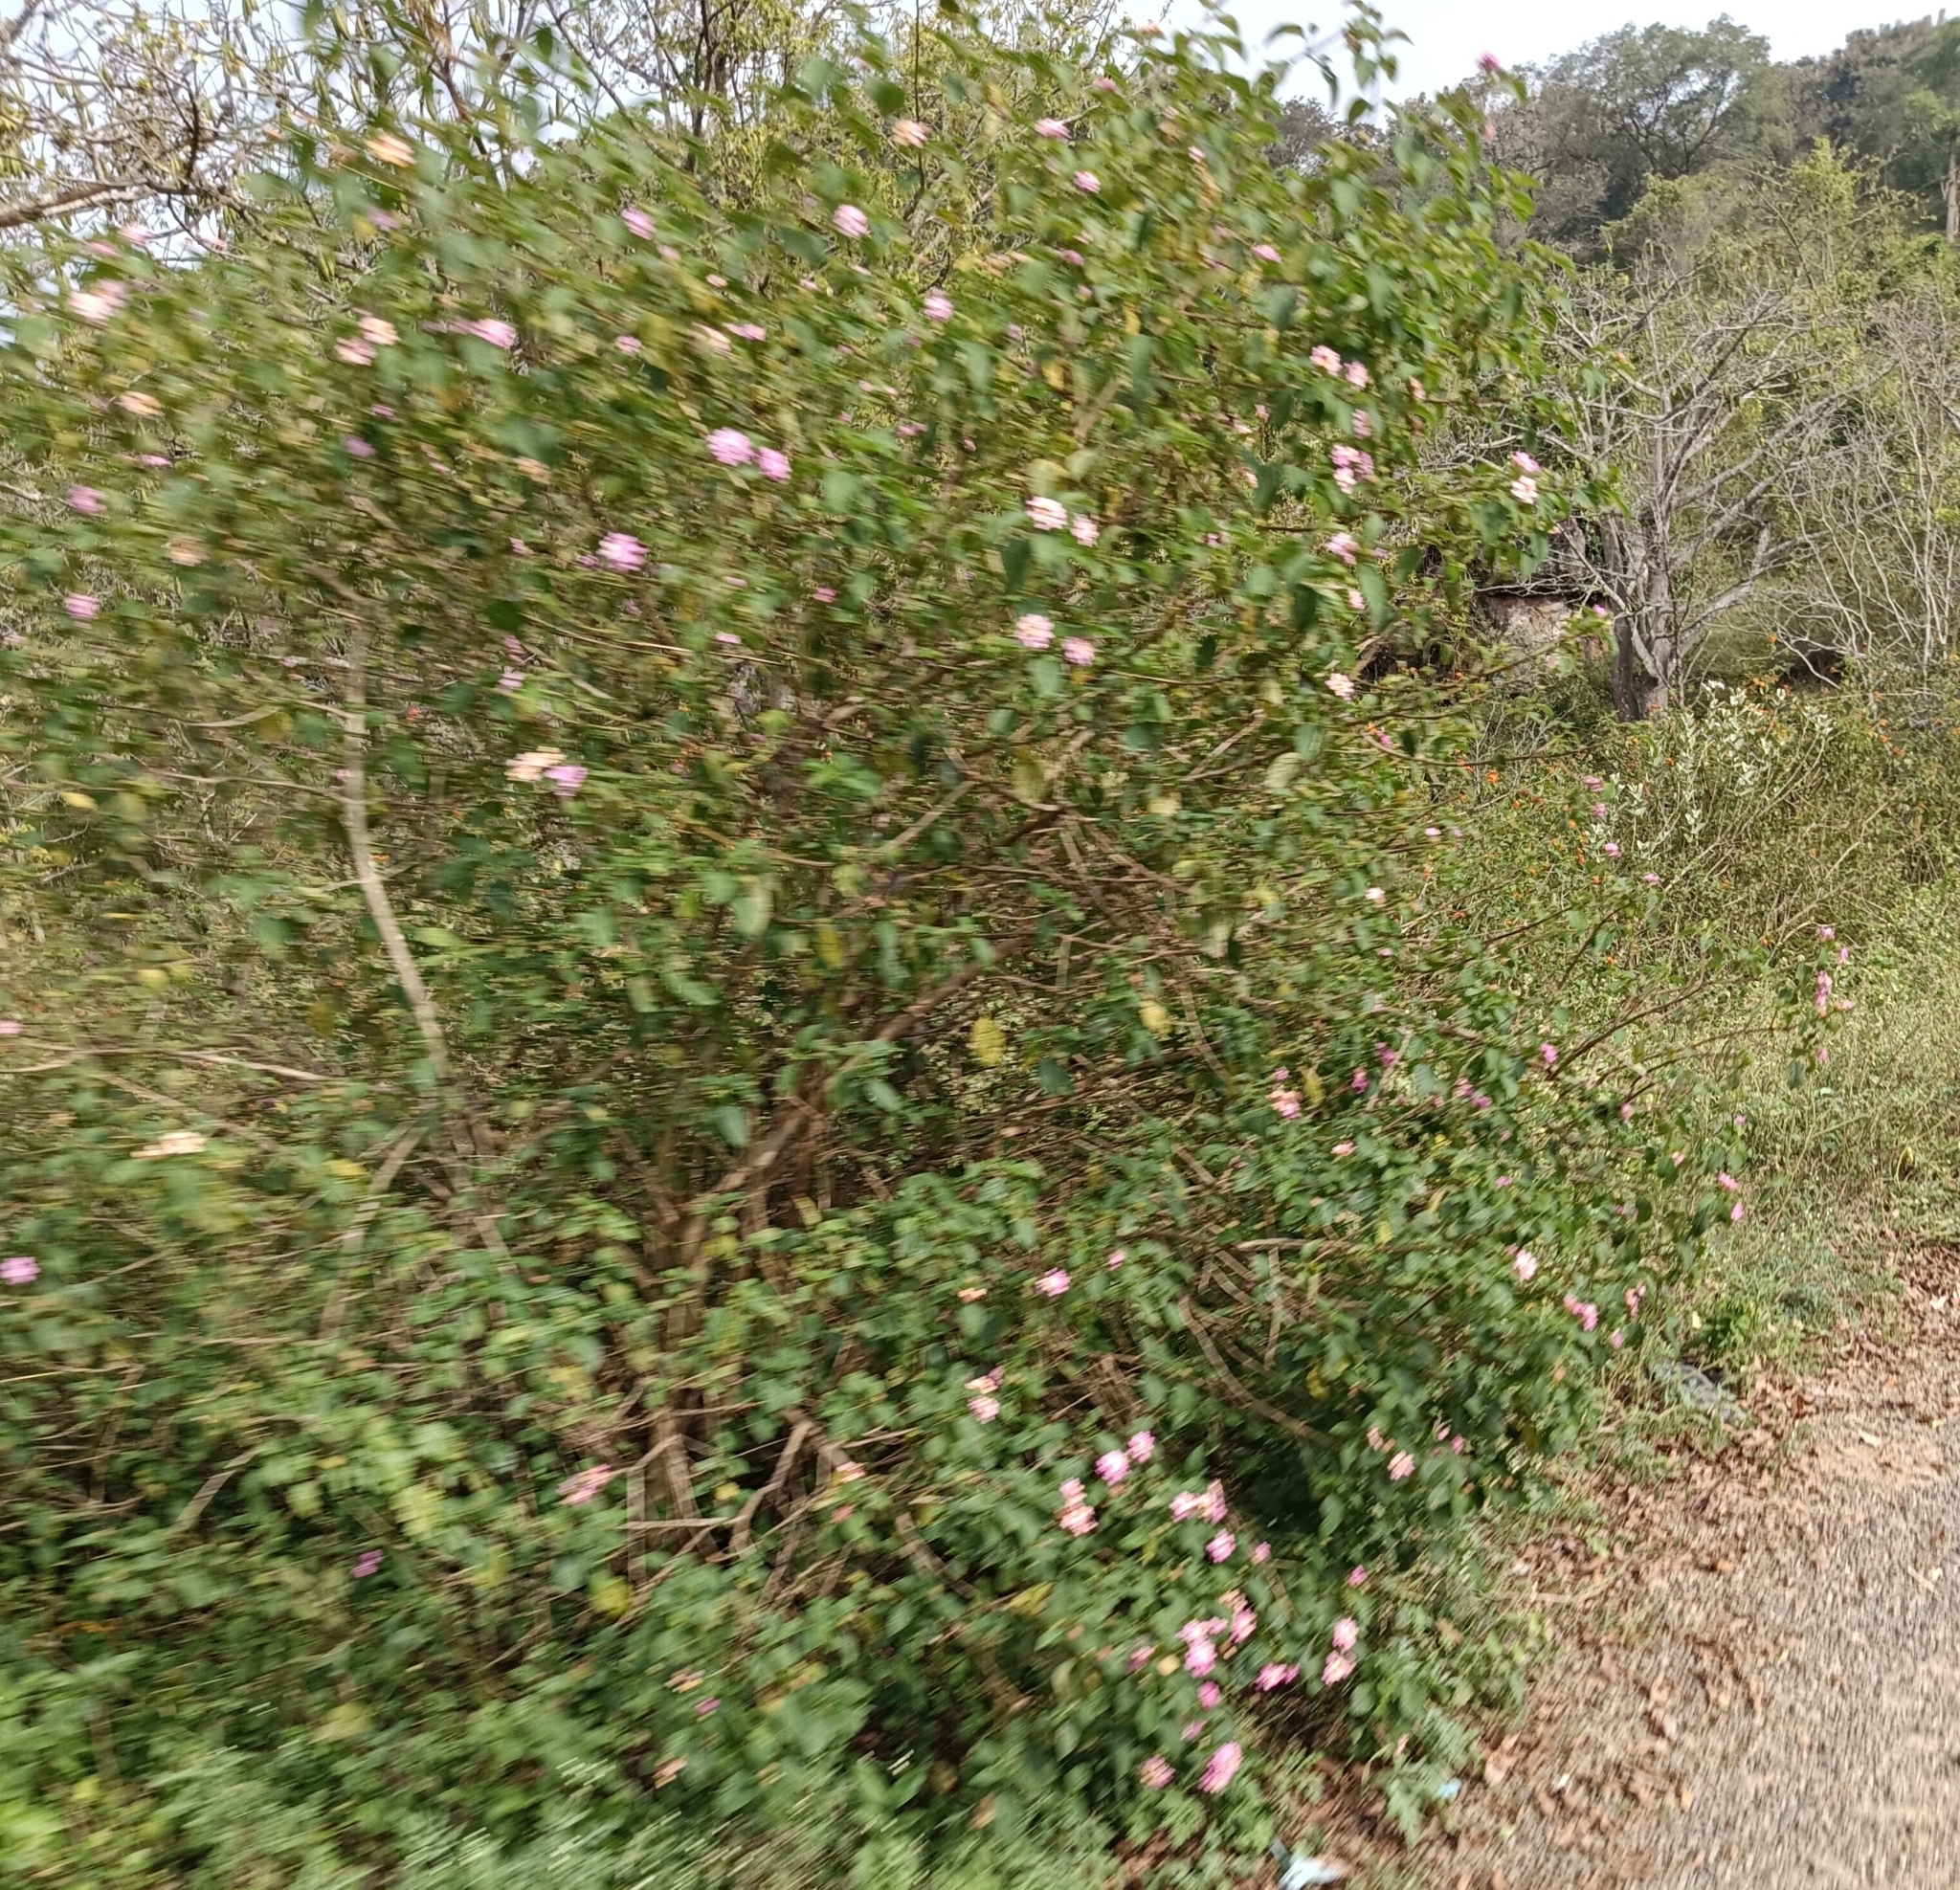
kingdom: Plantae
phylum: Tracheophyta
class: Magnoliopsida
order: Lamiales
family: Verbenaceae
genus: Lantana
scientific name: Lantana camara
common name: Lantana
